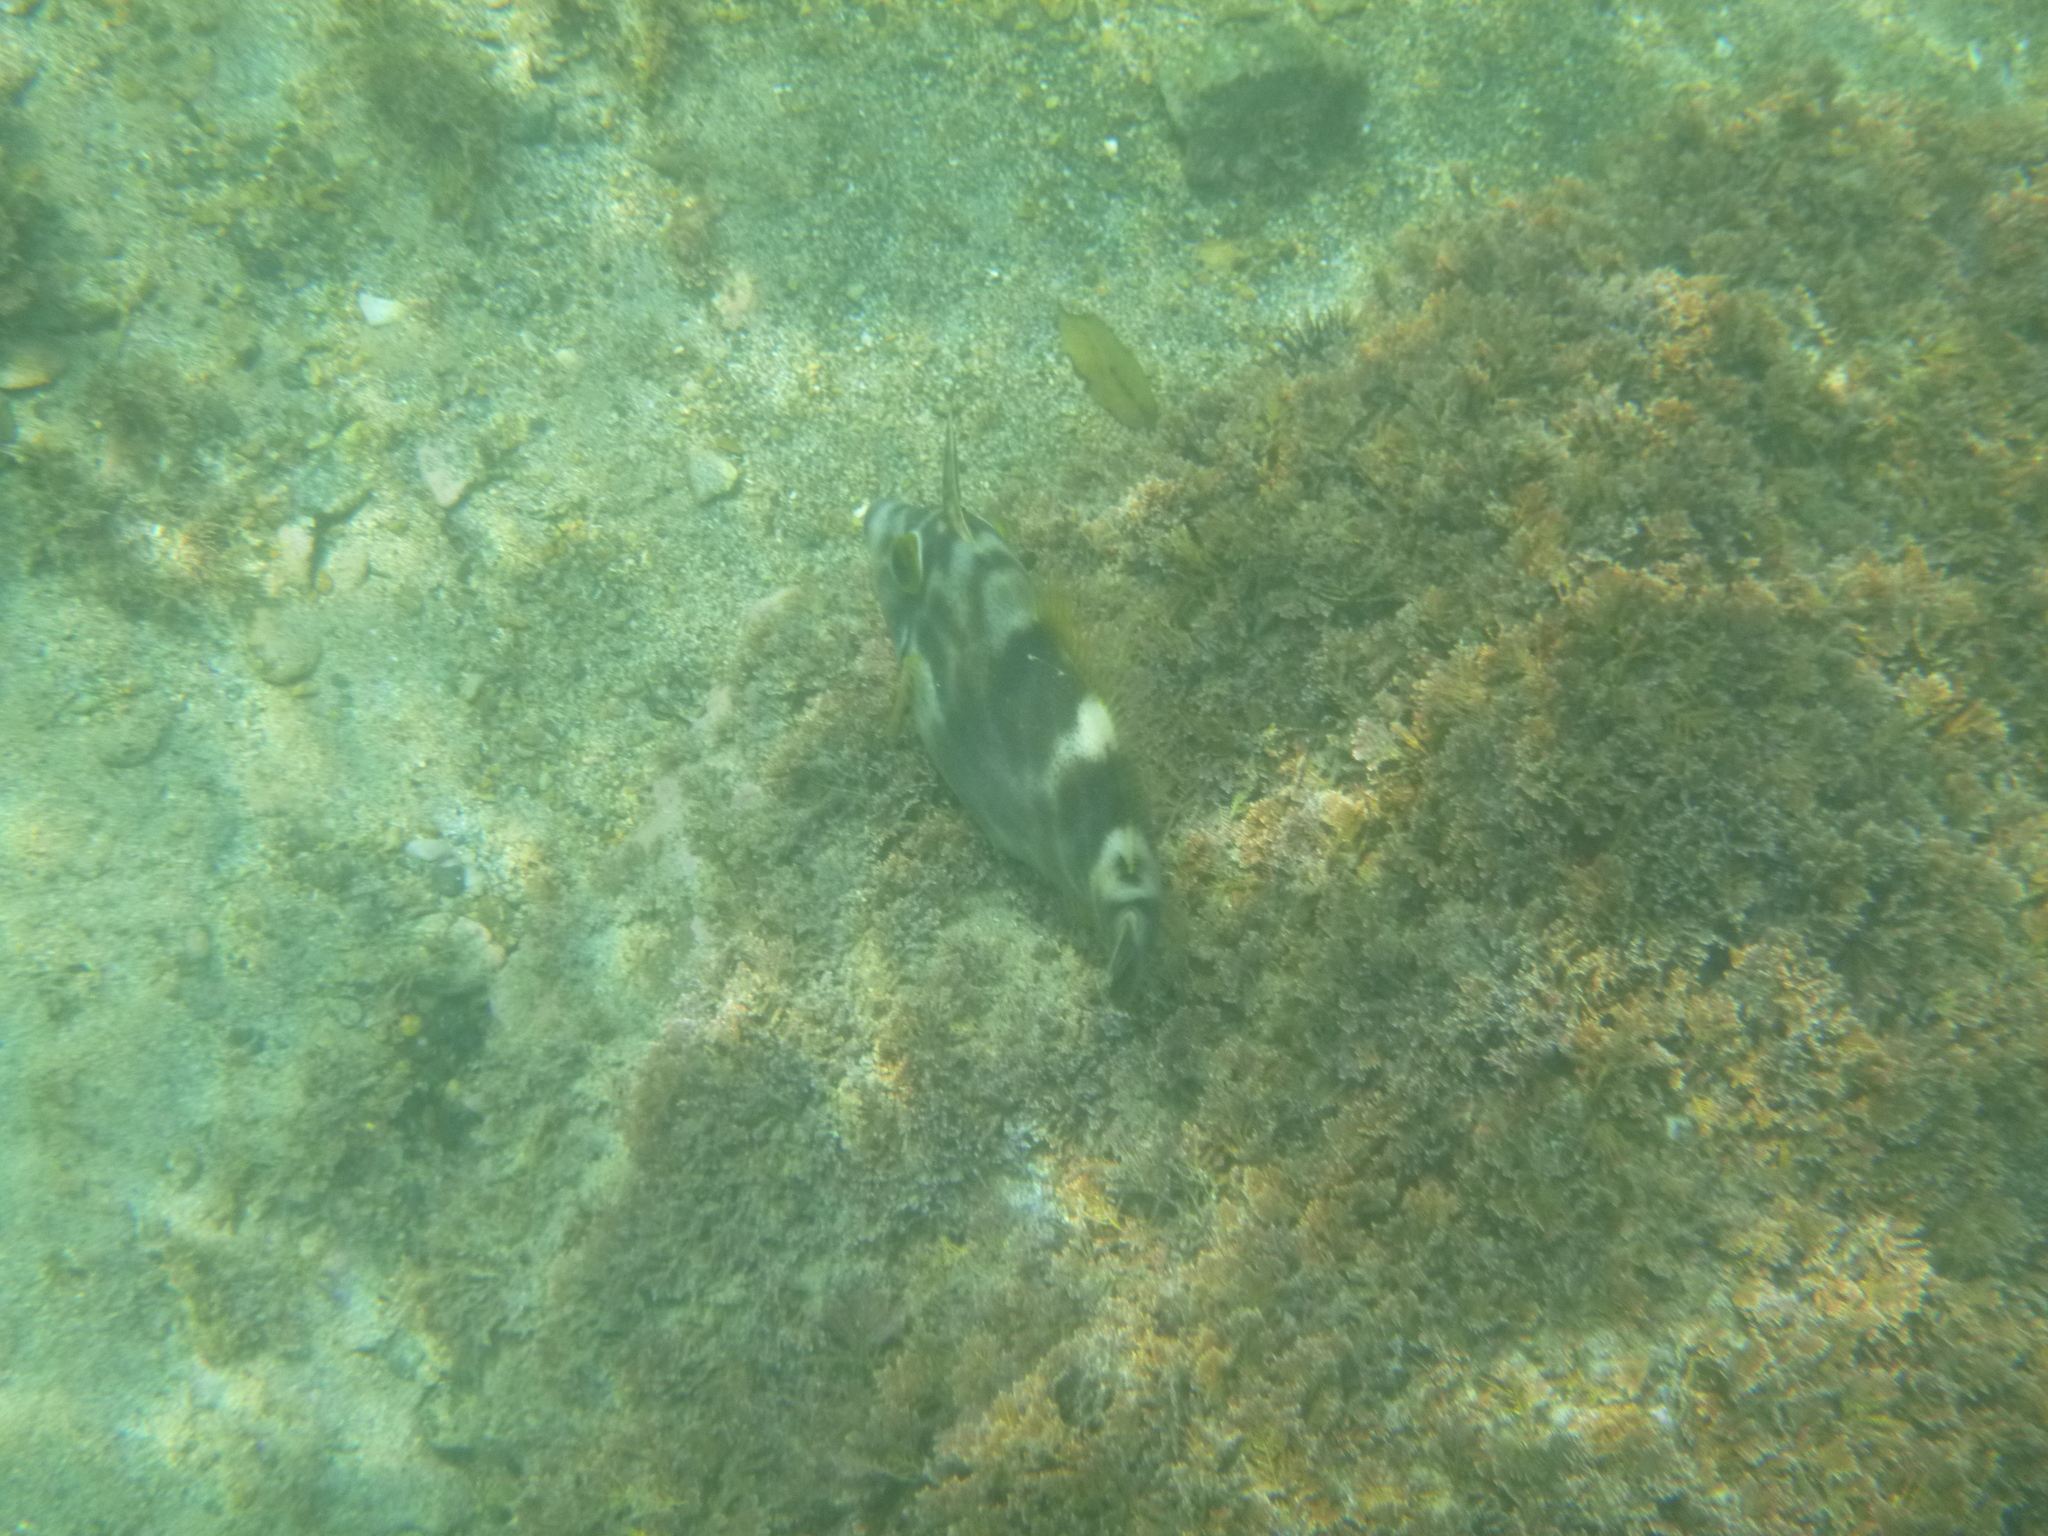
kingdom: Animalia
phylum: Chordata
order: Tetraodontiformes
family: Monacanthidae
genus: Meuschenia
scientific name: Meuschenia scaber
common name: Cosmopolitan leatherjacket
